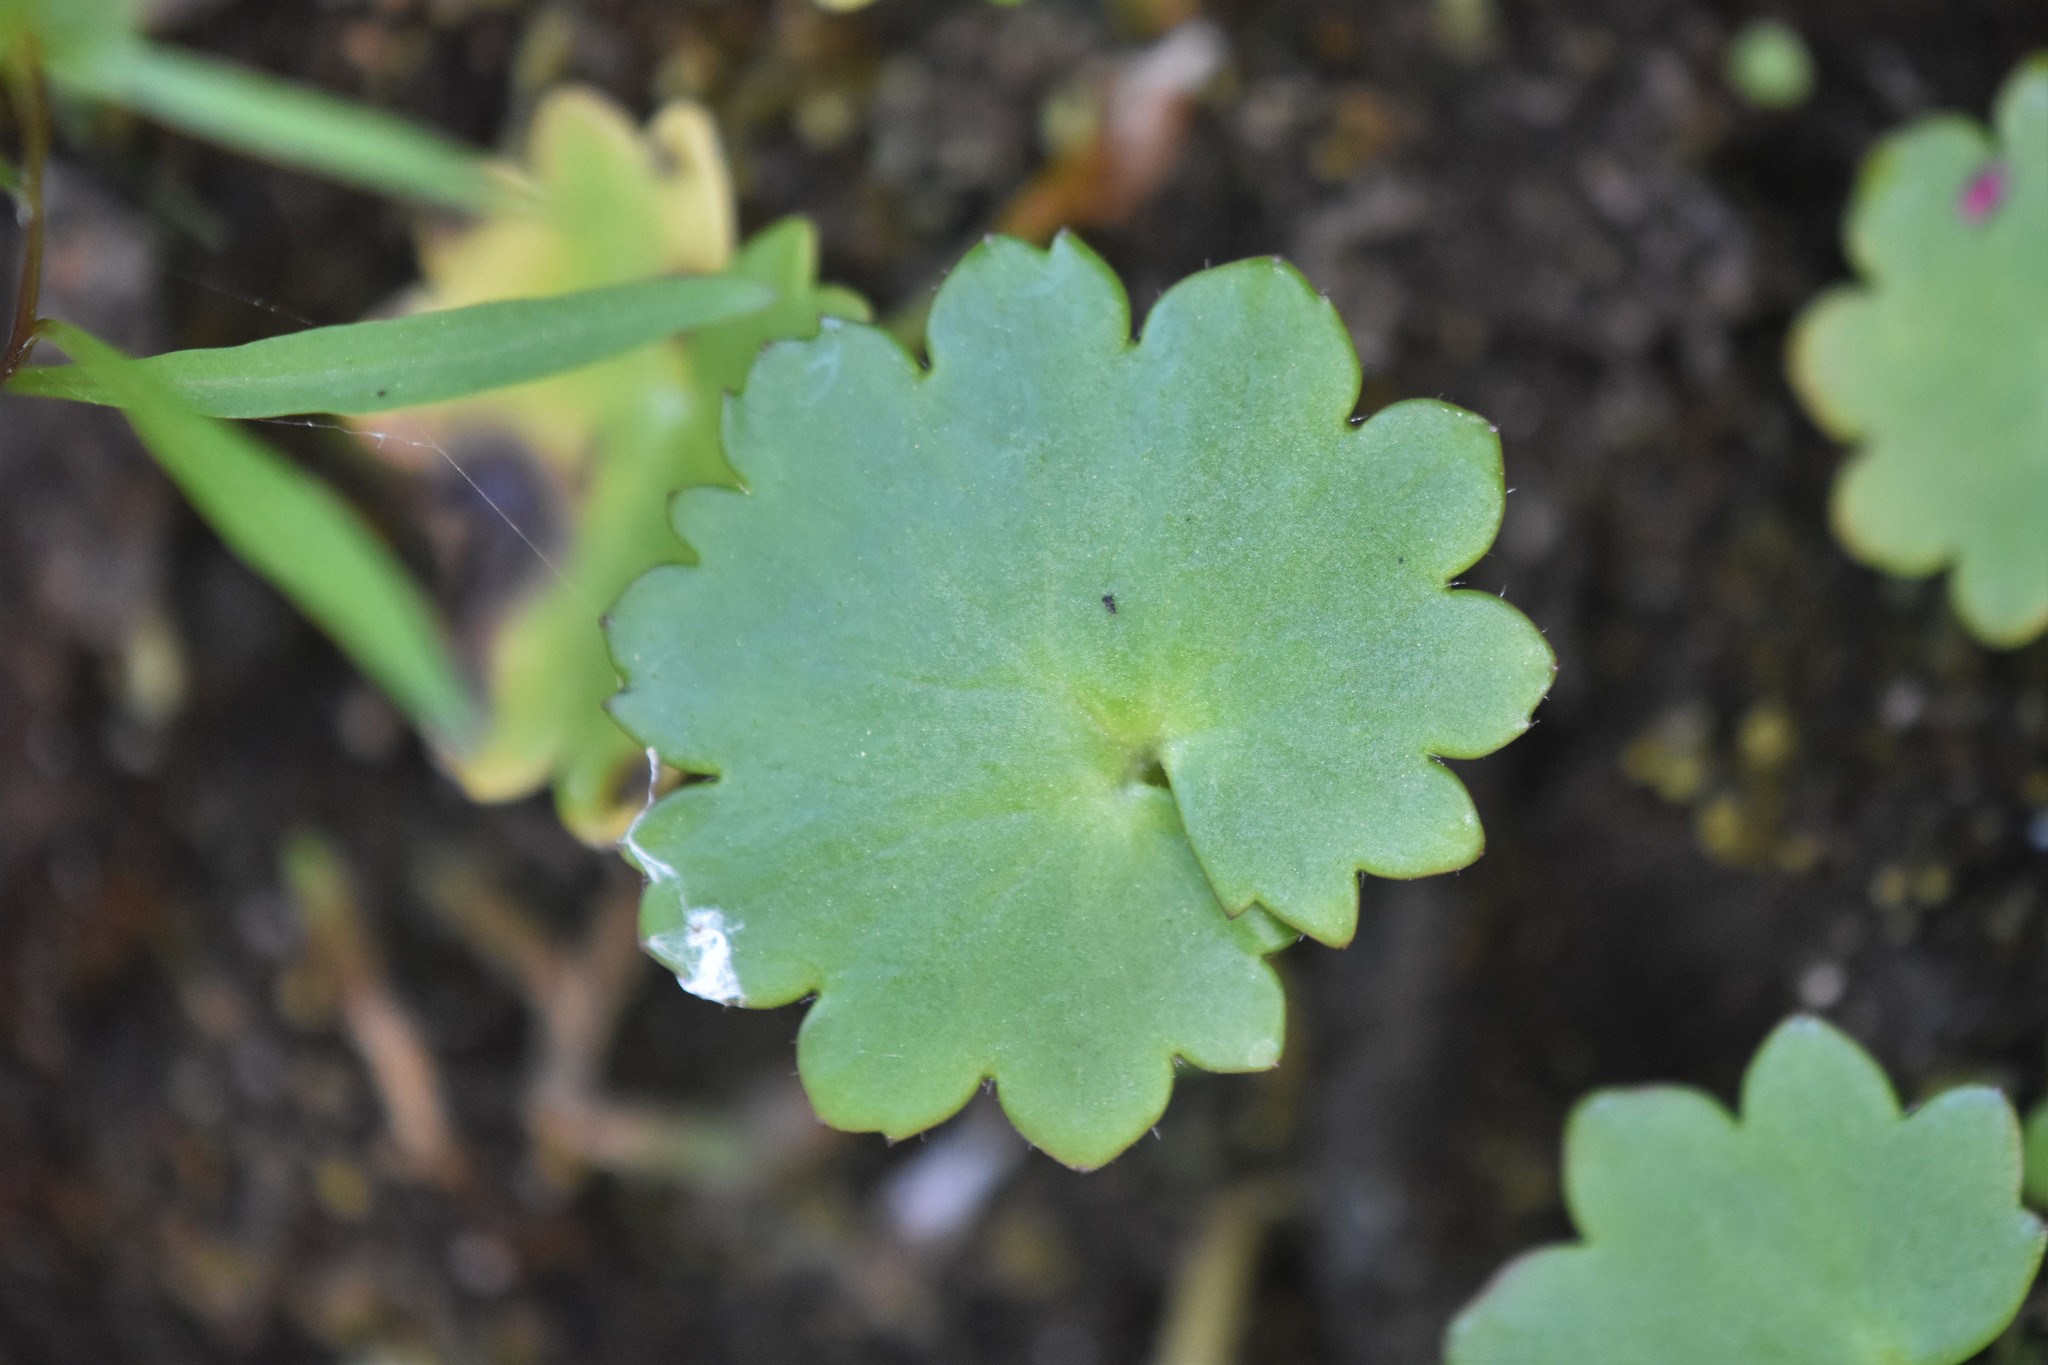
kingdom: Plantae
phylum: Tracheophyta
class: Magnoliopsida
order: Saxifragales
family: Saxifragaceae
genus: Micranthes
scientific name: Micranthes mertensiana
